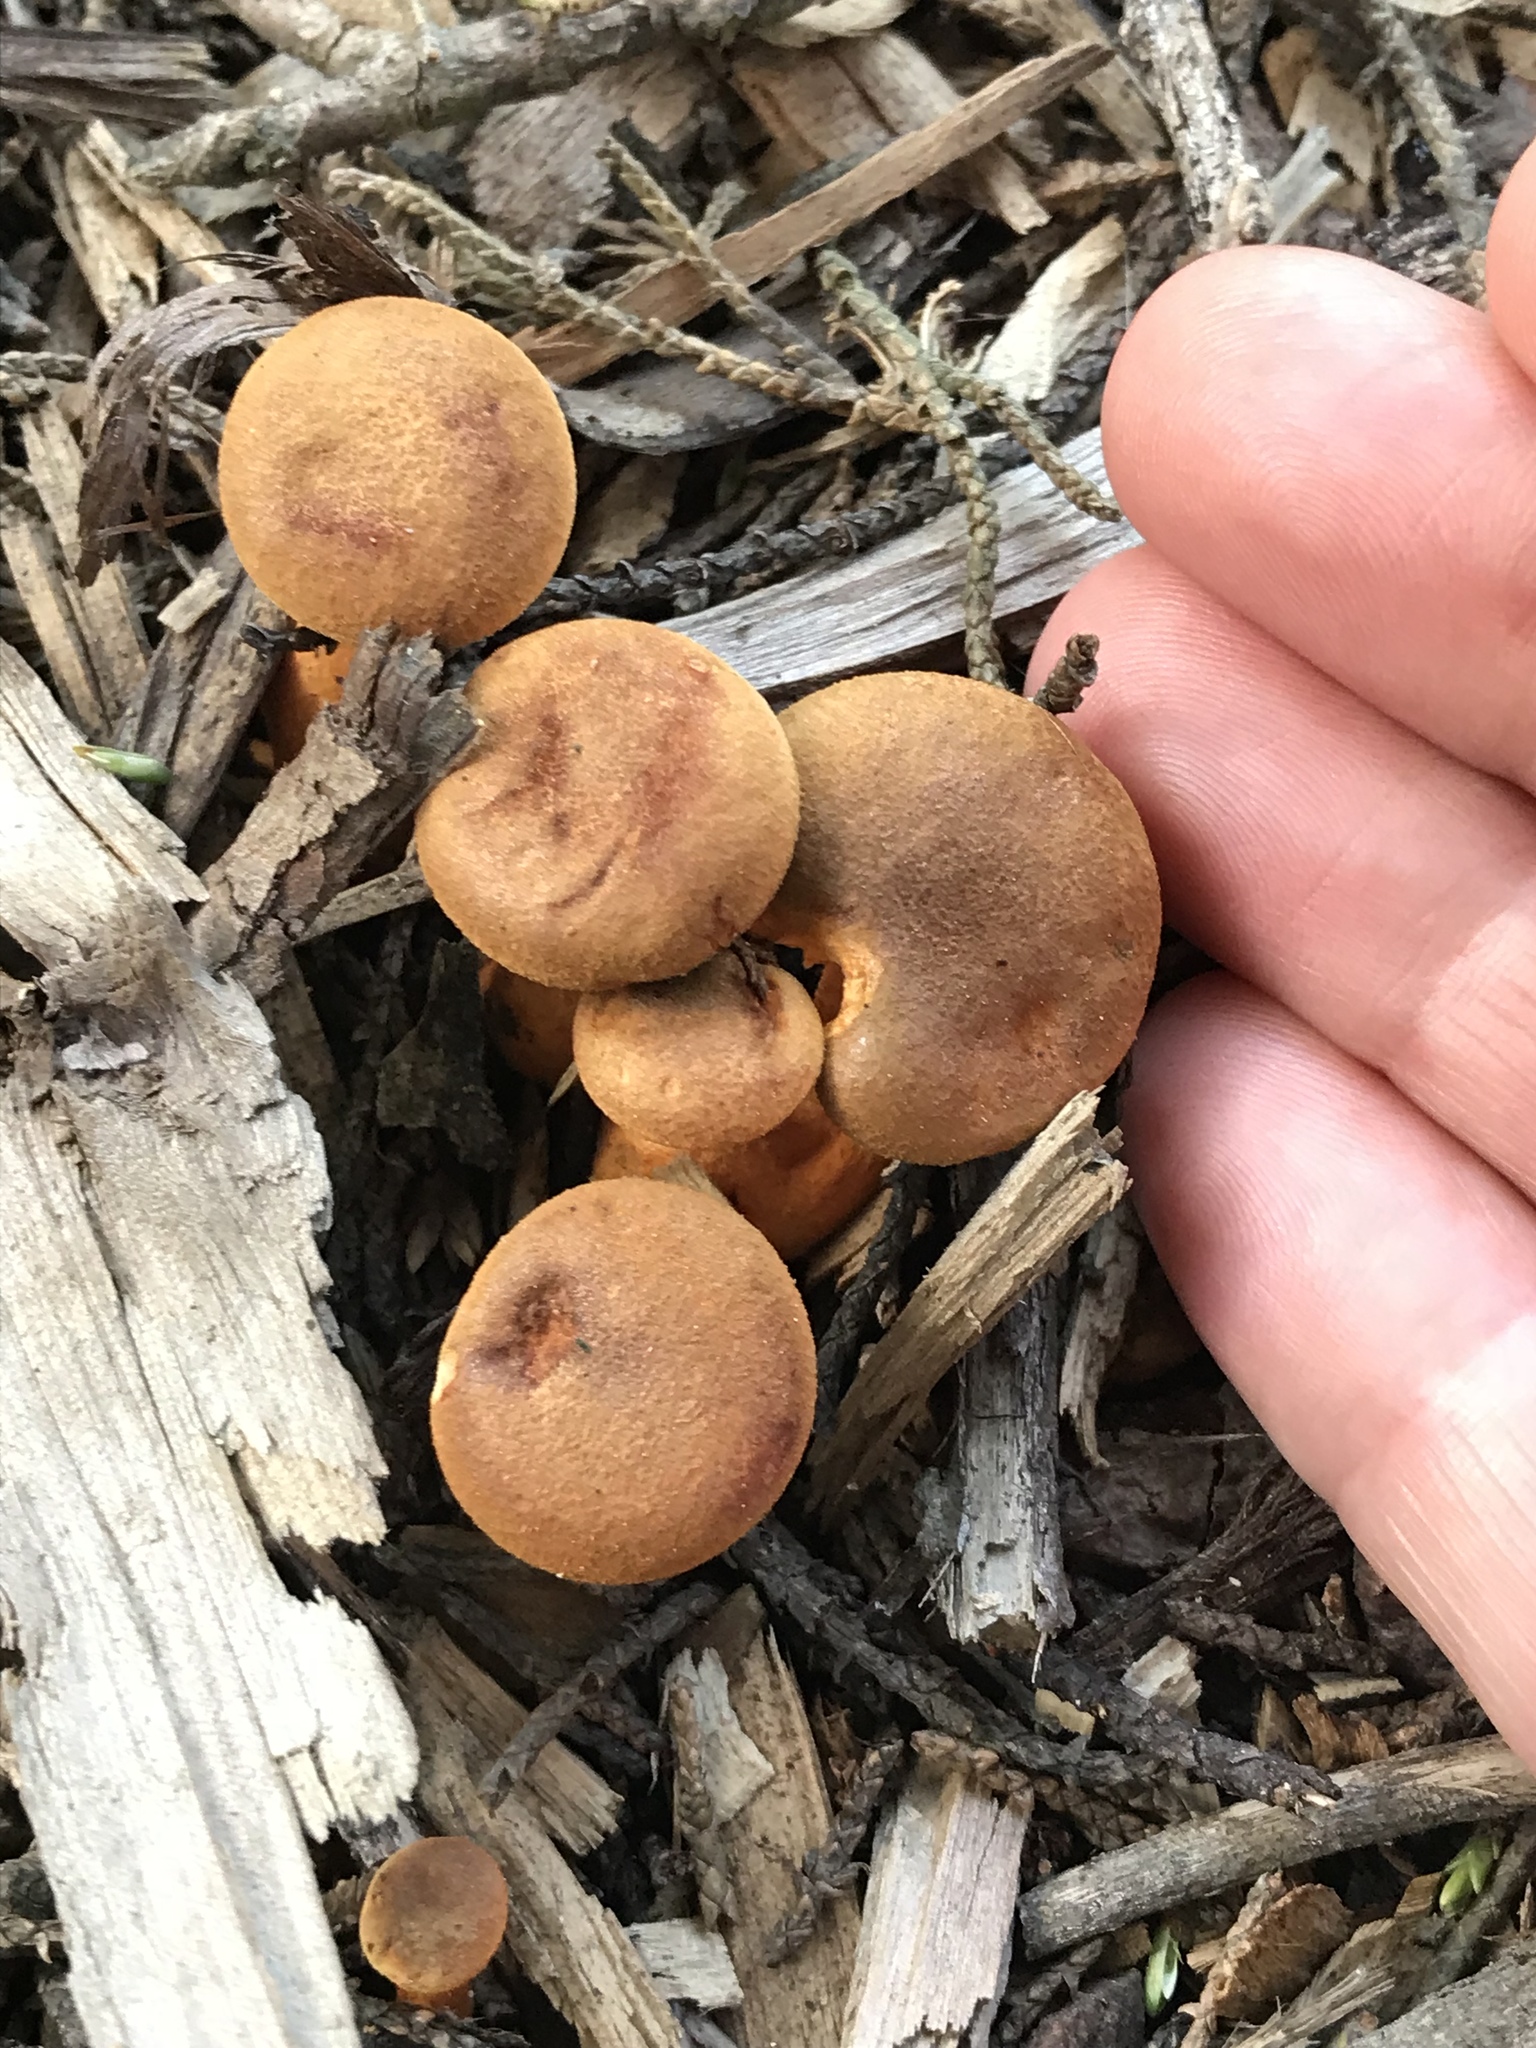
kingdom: Fungi
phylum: Basidiomycota
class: Agaricomycetes
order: Boletales
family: Hygrophoropsidaceae
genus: Hygrophoropsis
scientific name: Hygrophoropsis aurantiaca
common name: False chanterelle
